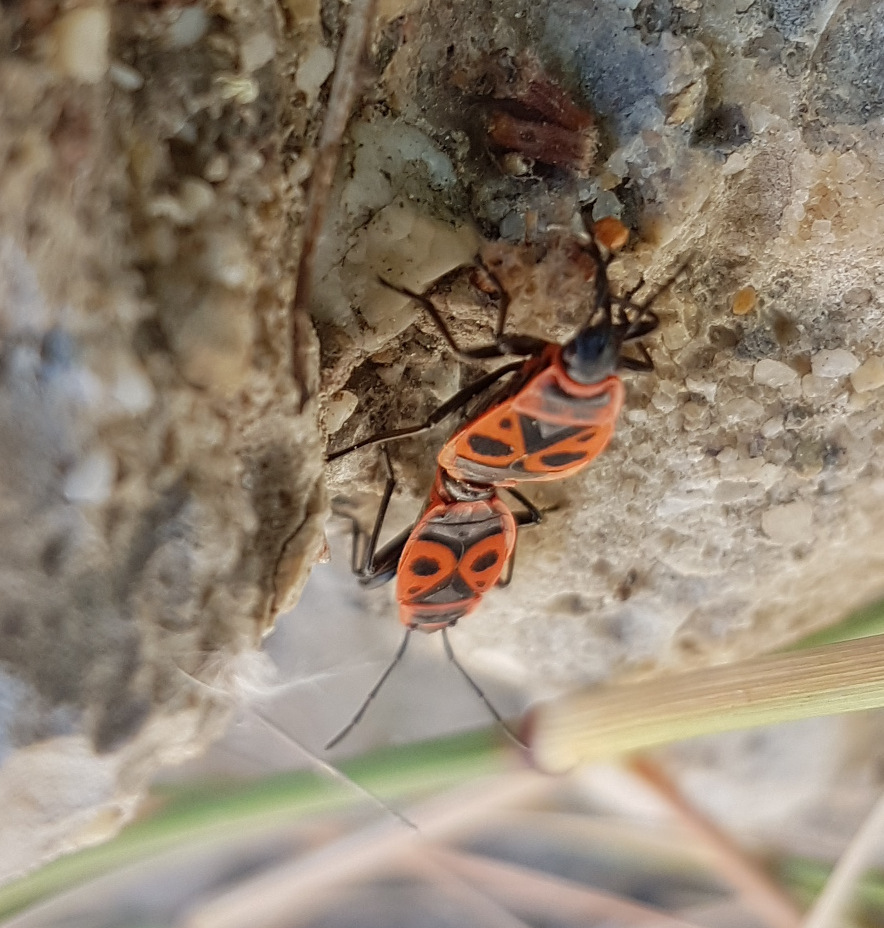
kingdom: Animalia
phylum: Arthropoda
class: Insecta
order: Hemiptera
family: Pyrrhocoridae
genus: Pyrrhocoris
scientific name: Pyrrhocoris apterus
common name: Firebug
